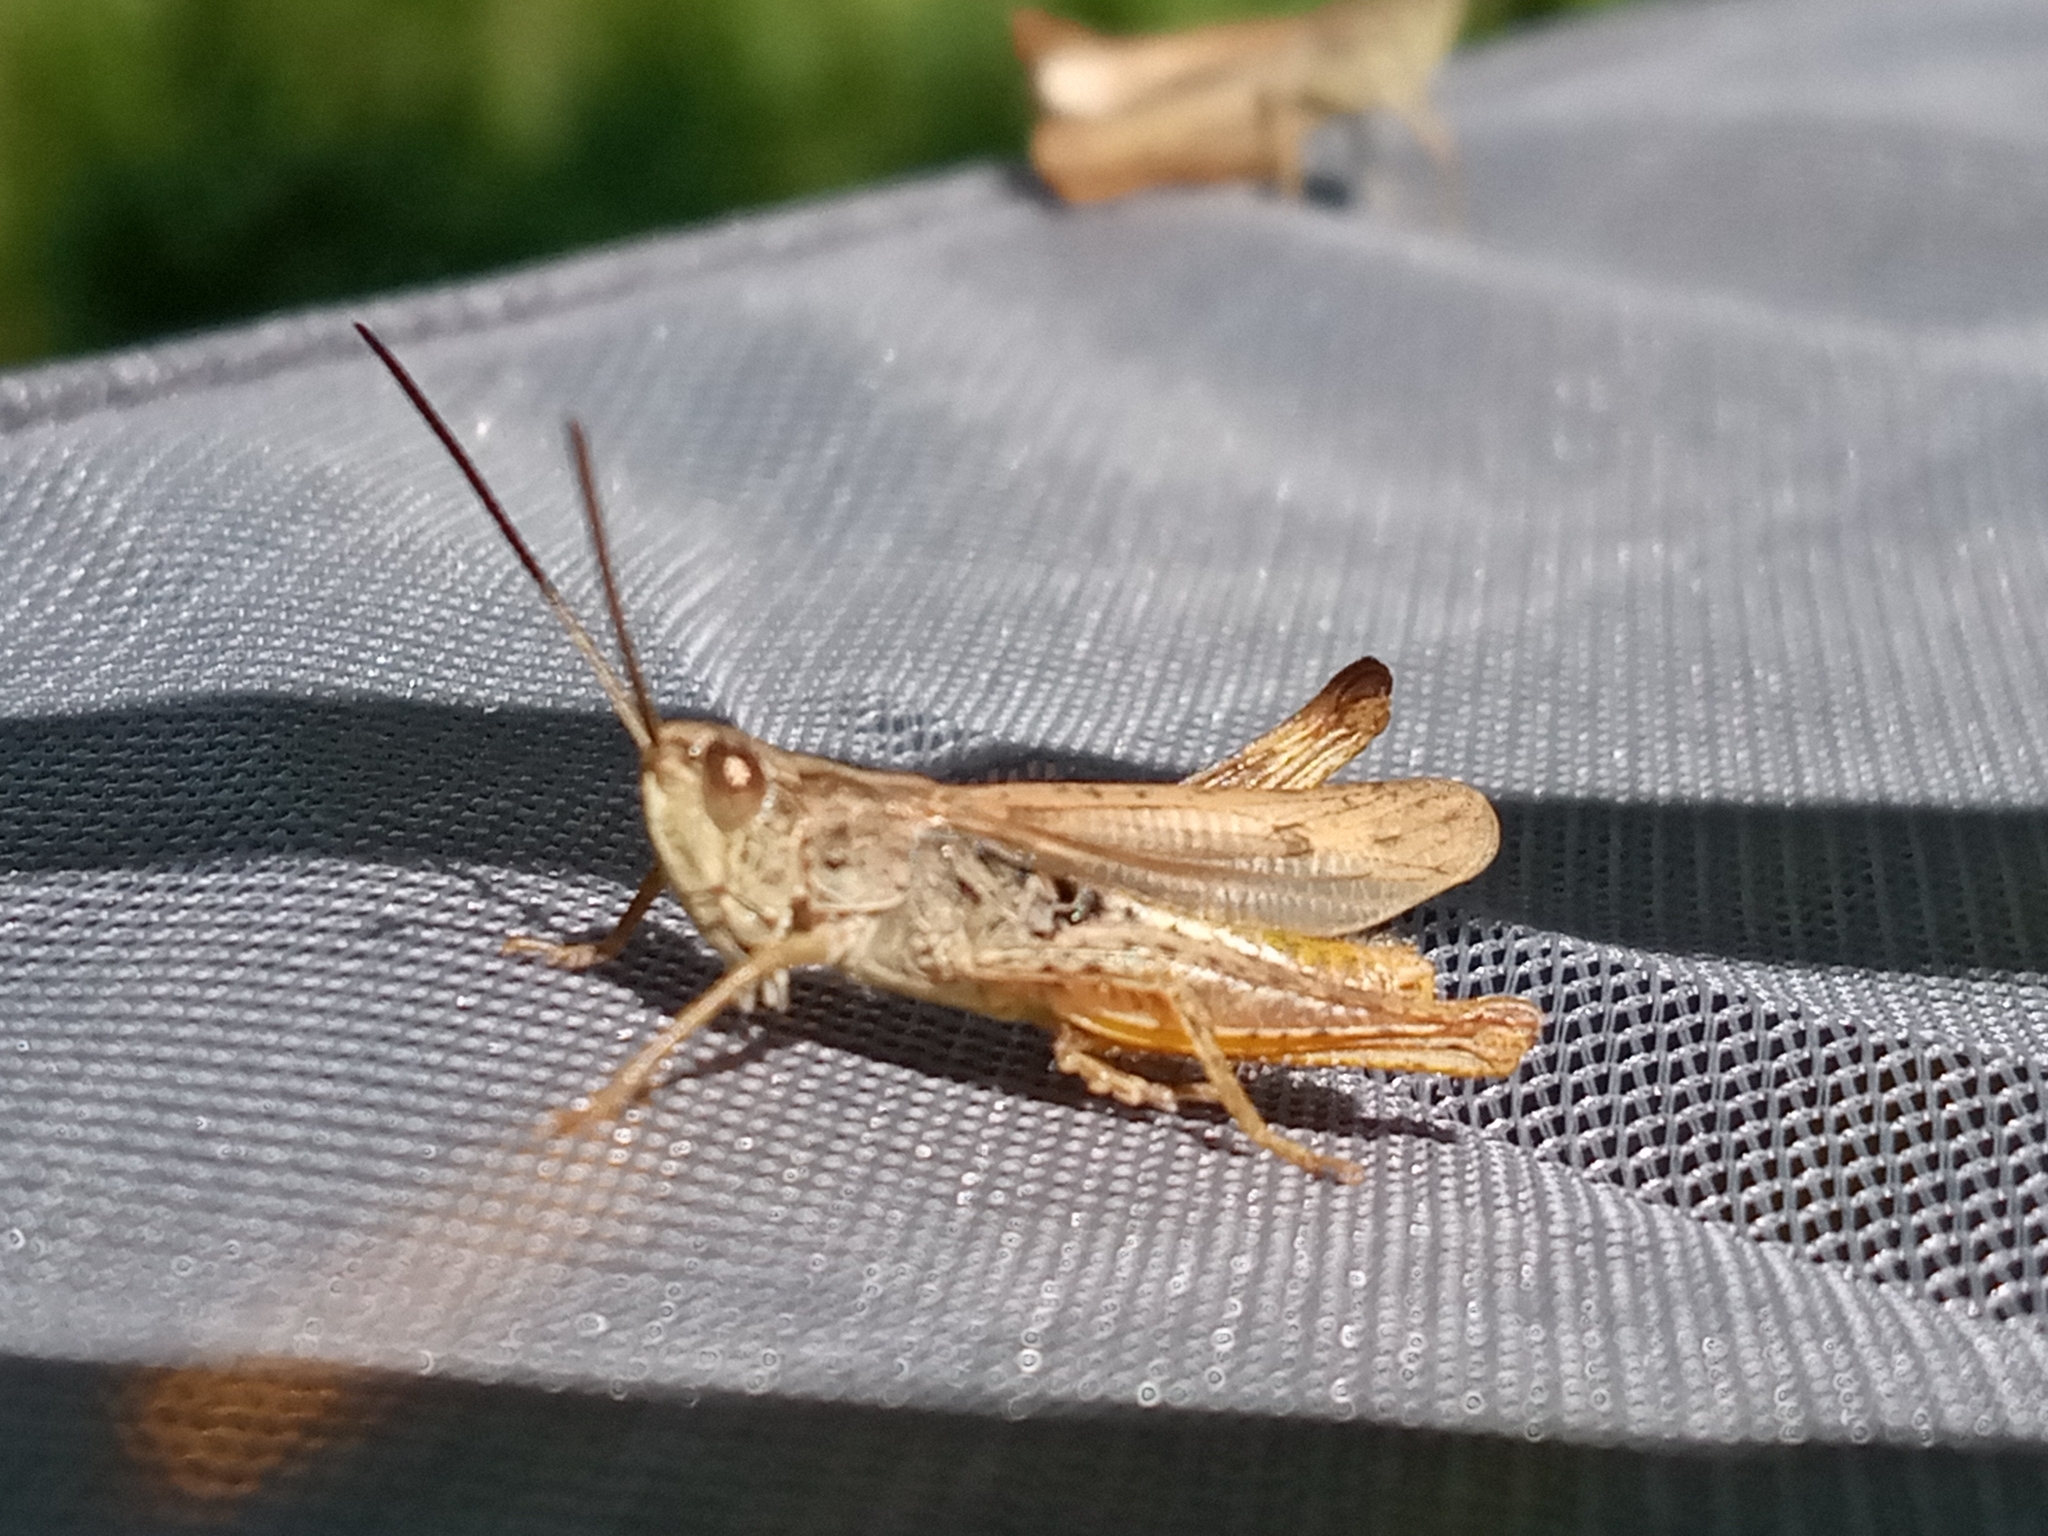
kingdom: Animalia
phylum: Arthropoda
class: Insecta
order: Orthoptera
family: Acrididae
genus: Chorthippus
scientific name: Chorthippus apricarius
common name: Upland field grasshopper
